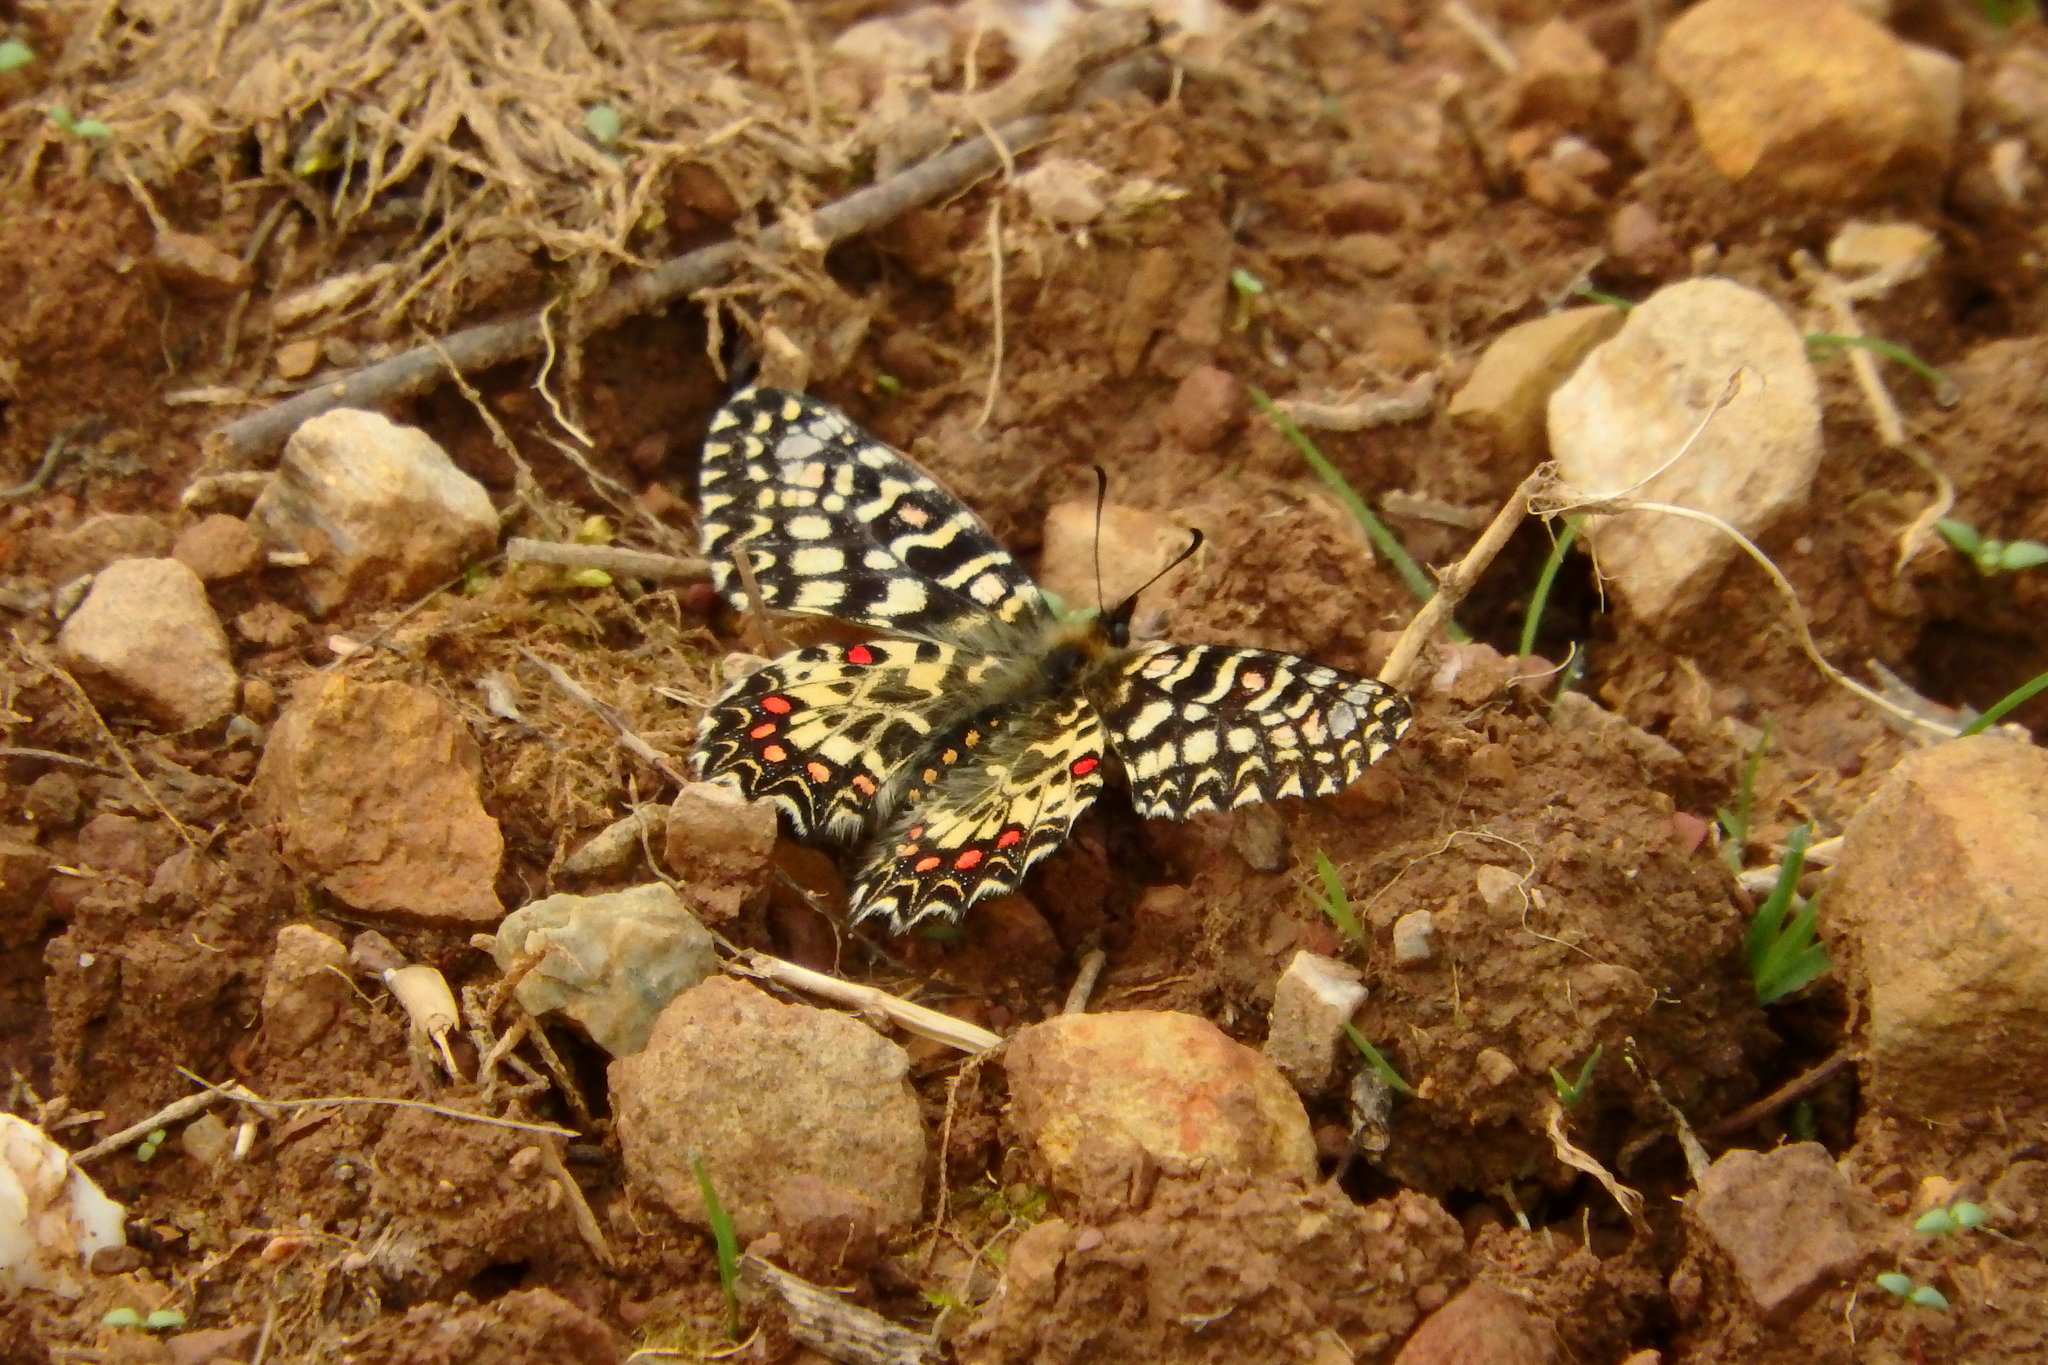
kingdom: Animalia
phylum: Arthropoda
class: Insecta
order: Lepidoptera
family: Papilionidae
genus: Zerynthia
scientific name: Zerynthia rumina
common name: Spanish festoon
